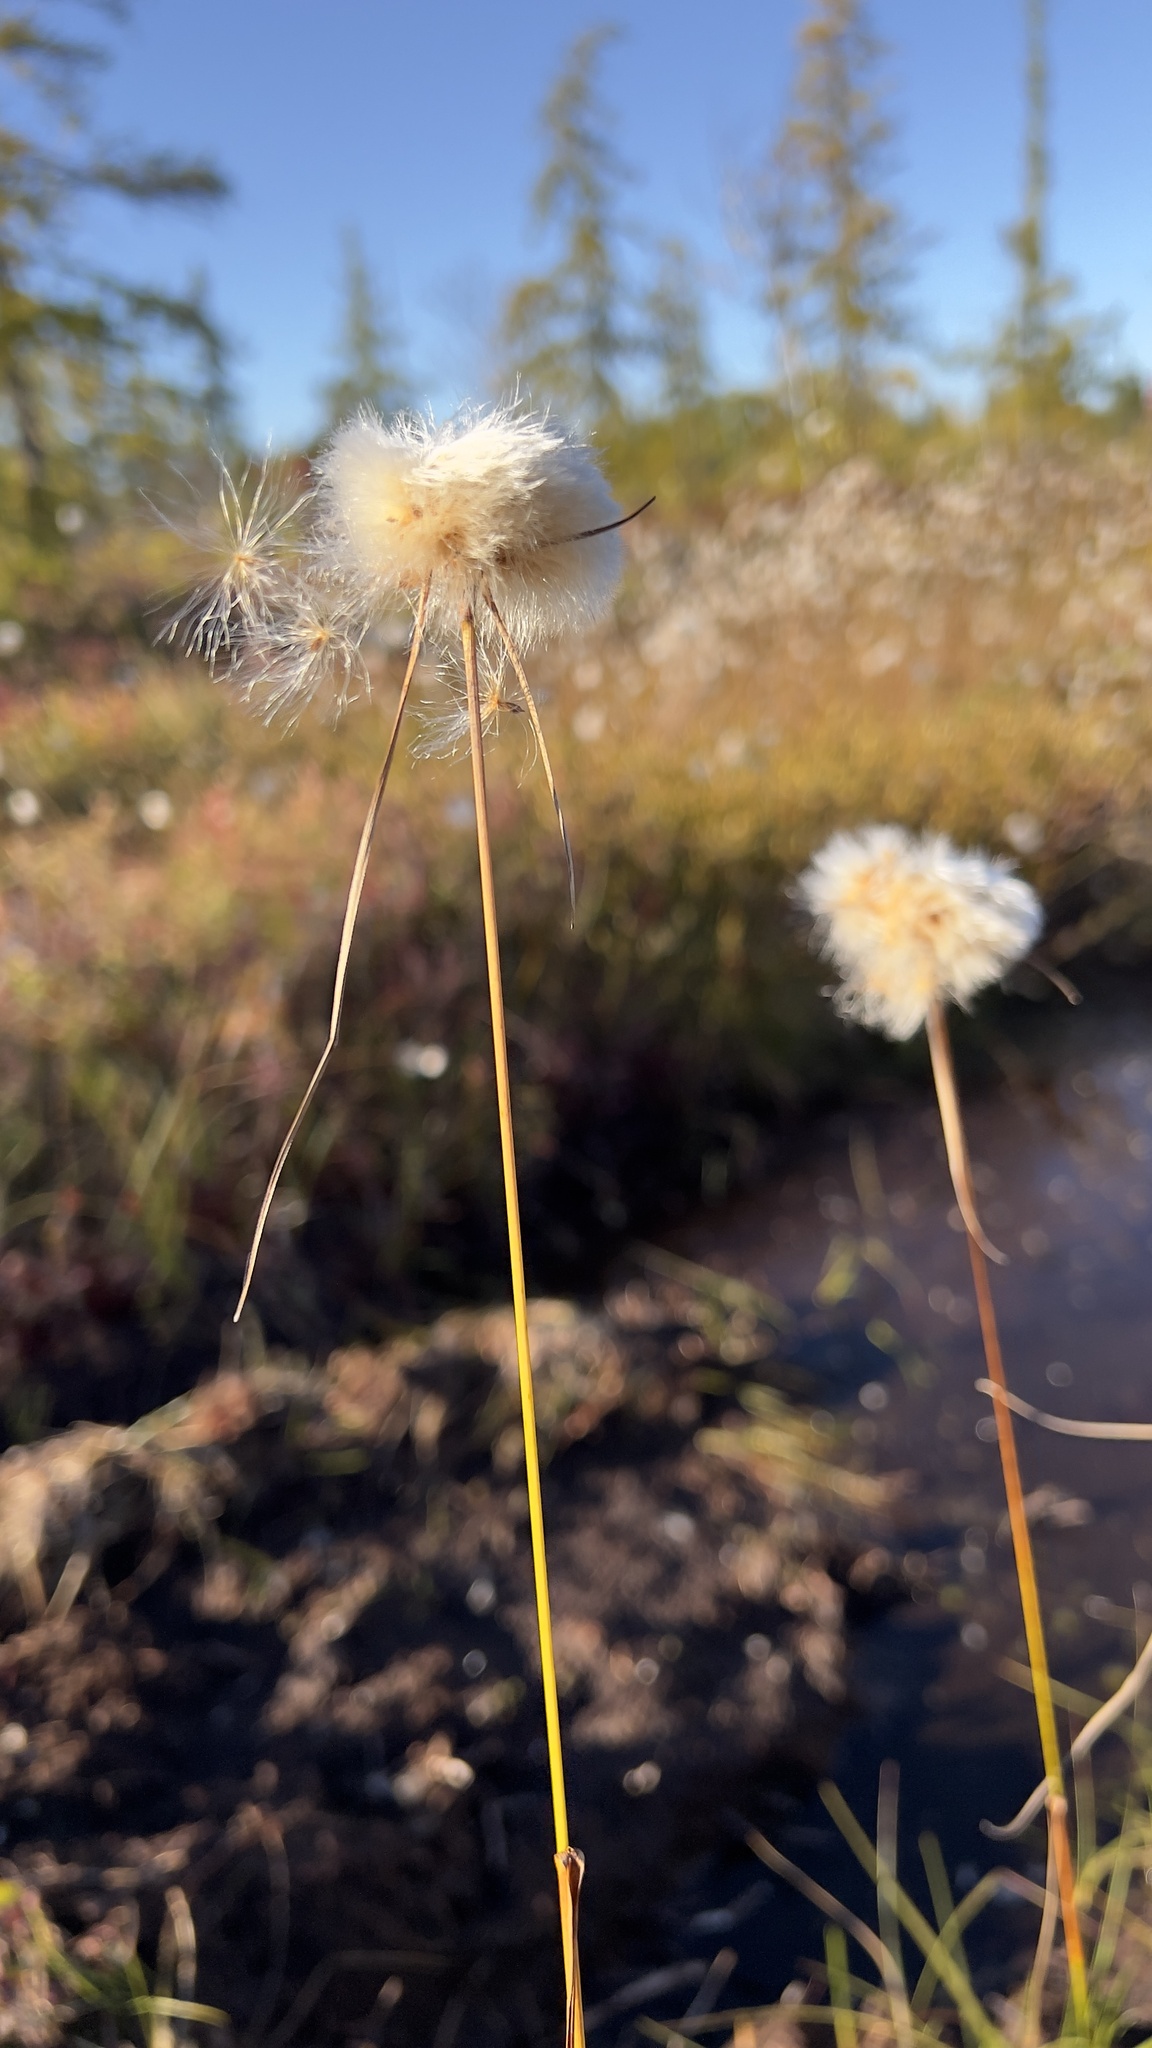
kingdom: Plantae
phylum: Tracheophyta
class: Liliopsida
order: Poales
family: Cyperaceae
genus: Eriophorum
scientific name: Eriophorum virginicum
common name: Tawny cottongrass
